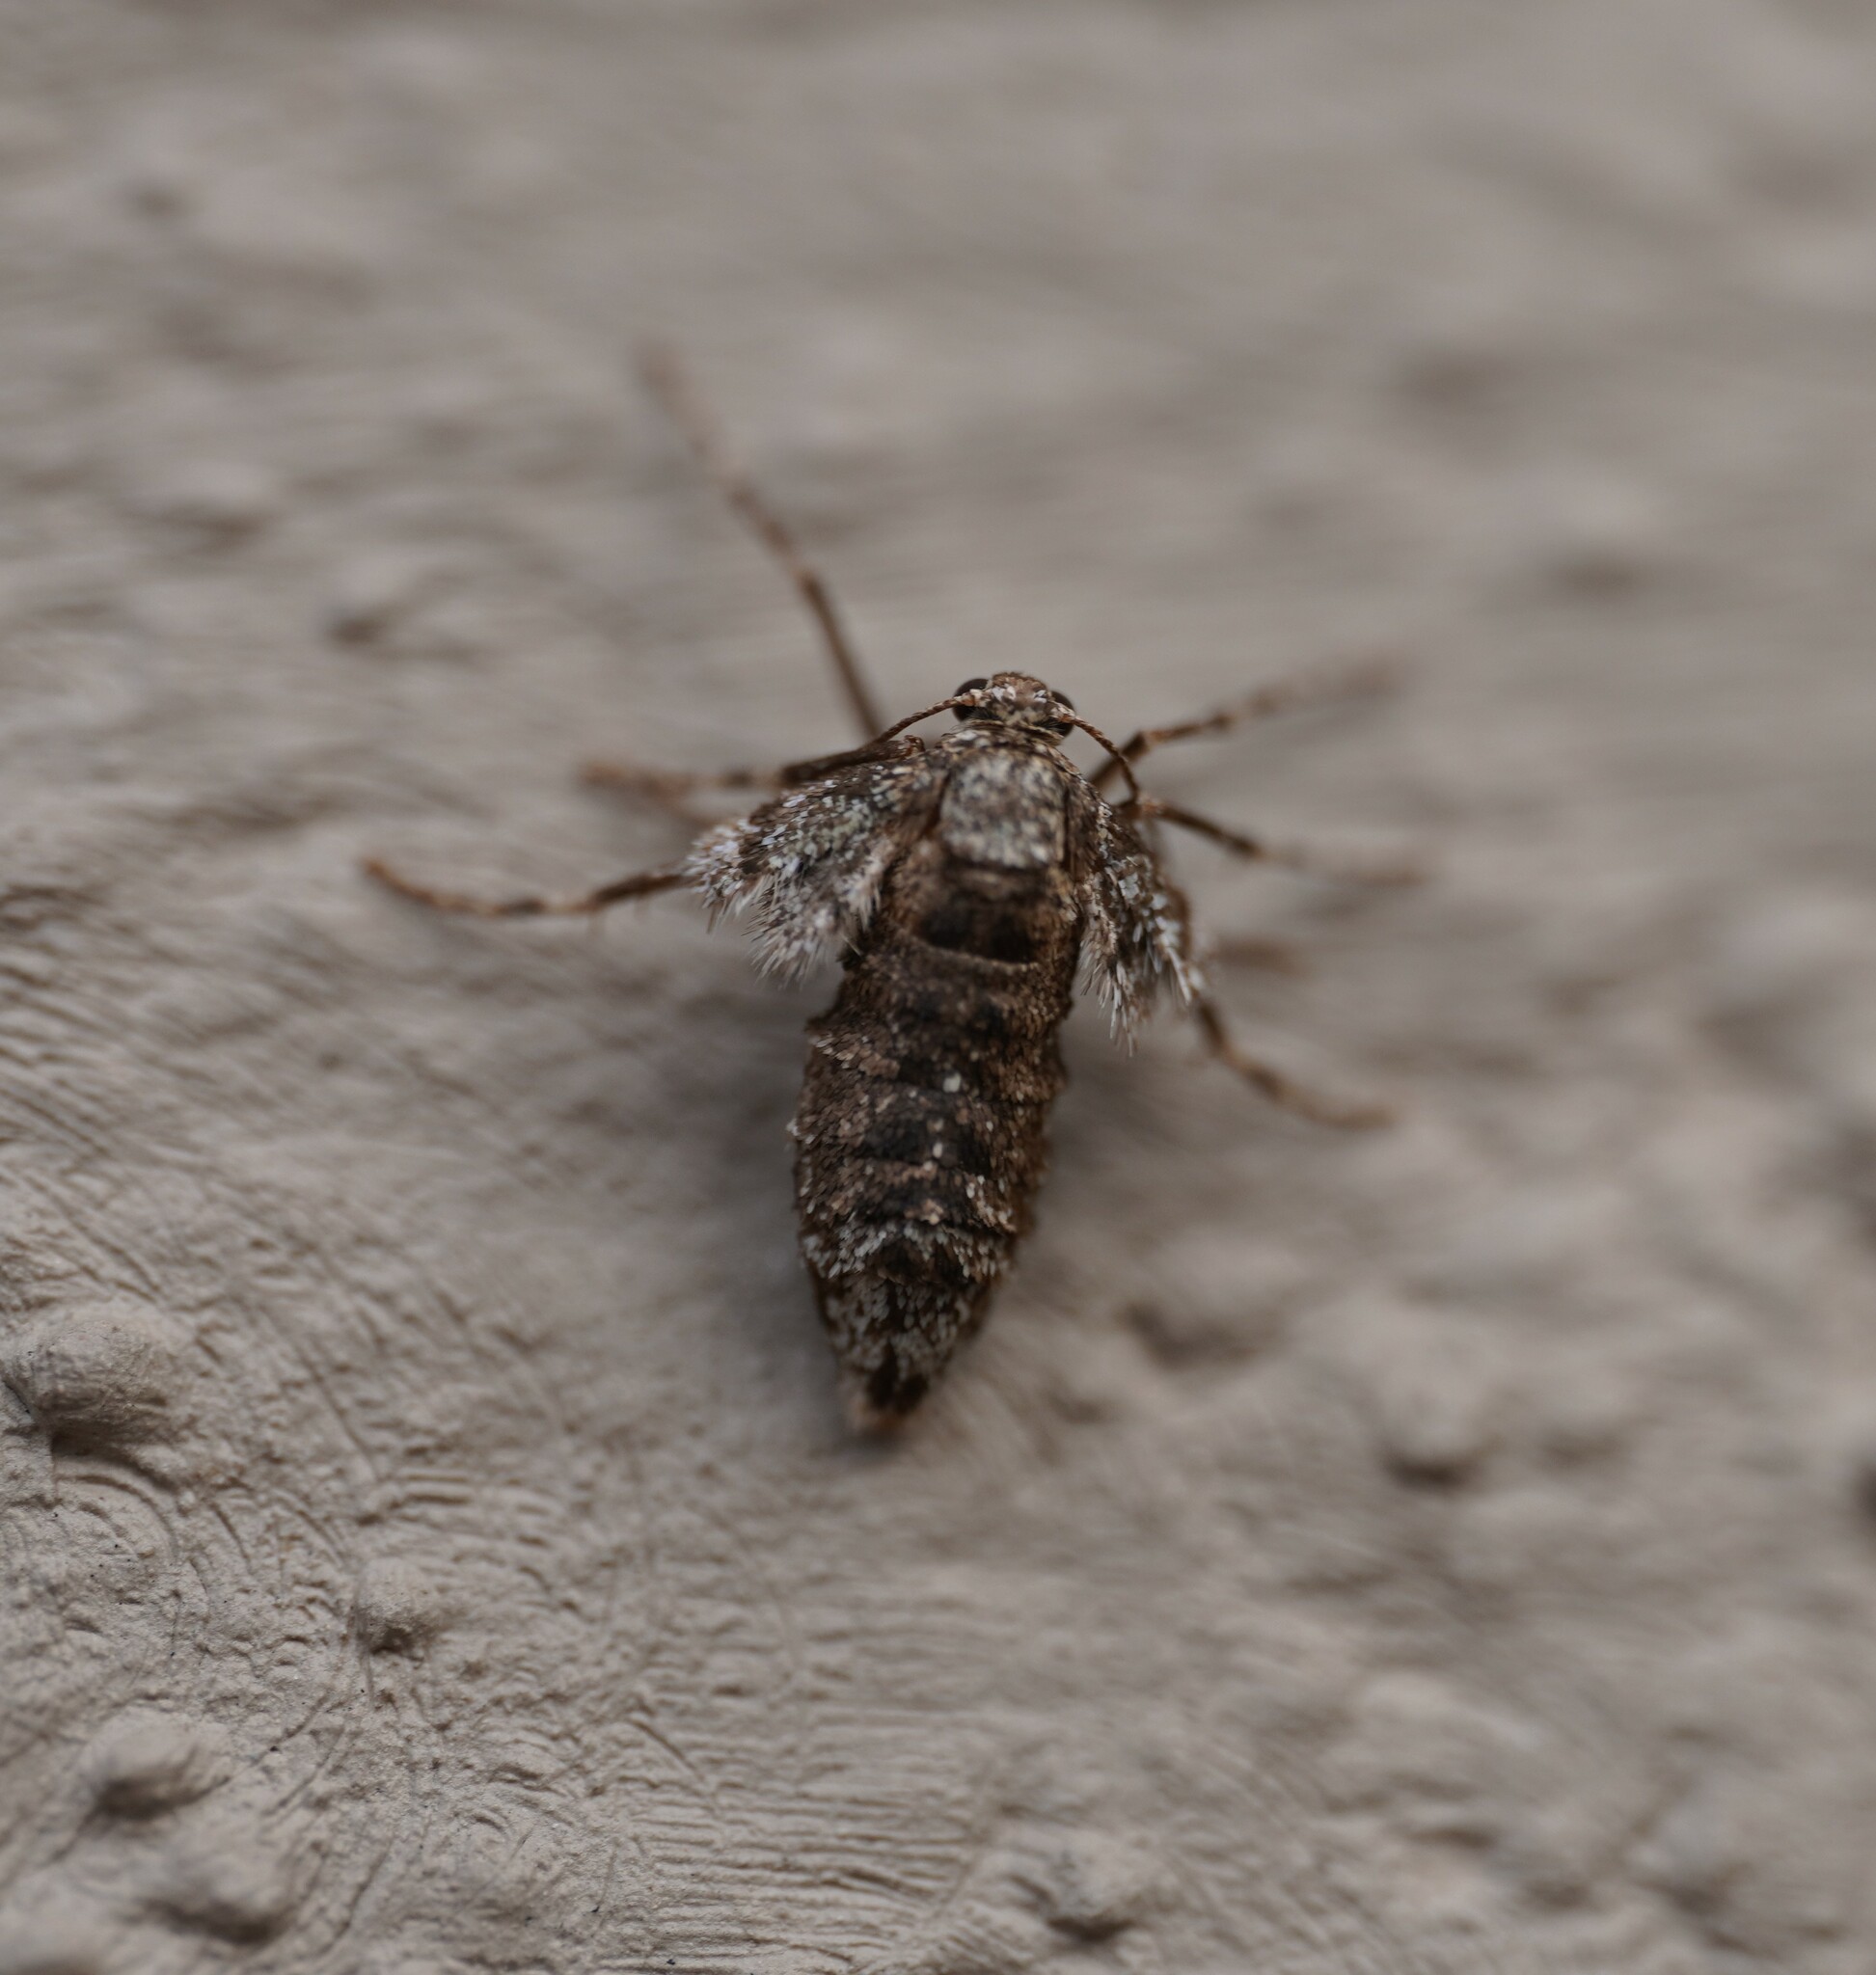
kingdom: Animalia
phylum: Arthropoda
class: Insecta
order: Lepidoptera
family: Geometridae
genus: Operophtera
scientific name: Operophtera brumata
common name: Winter moth
